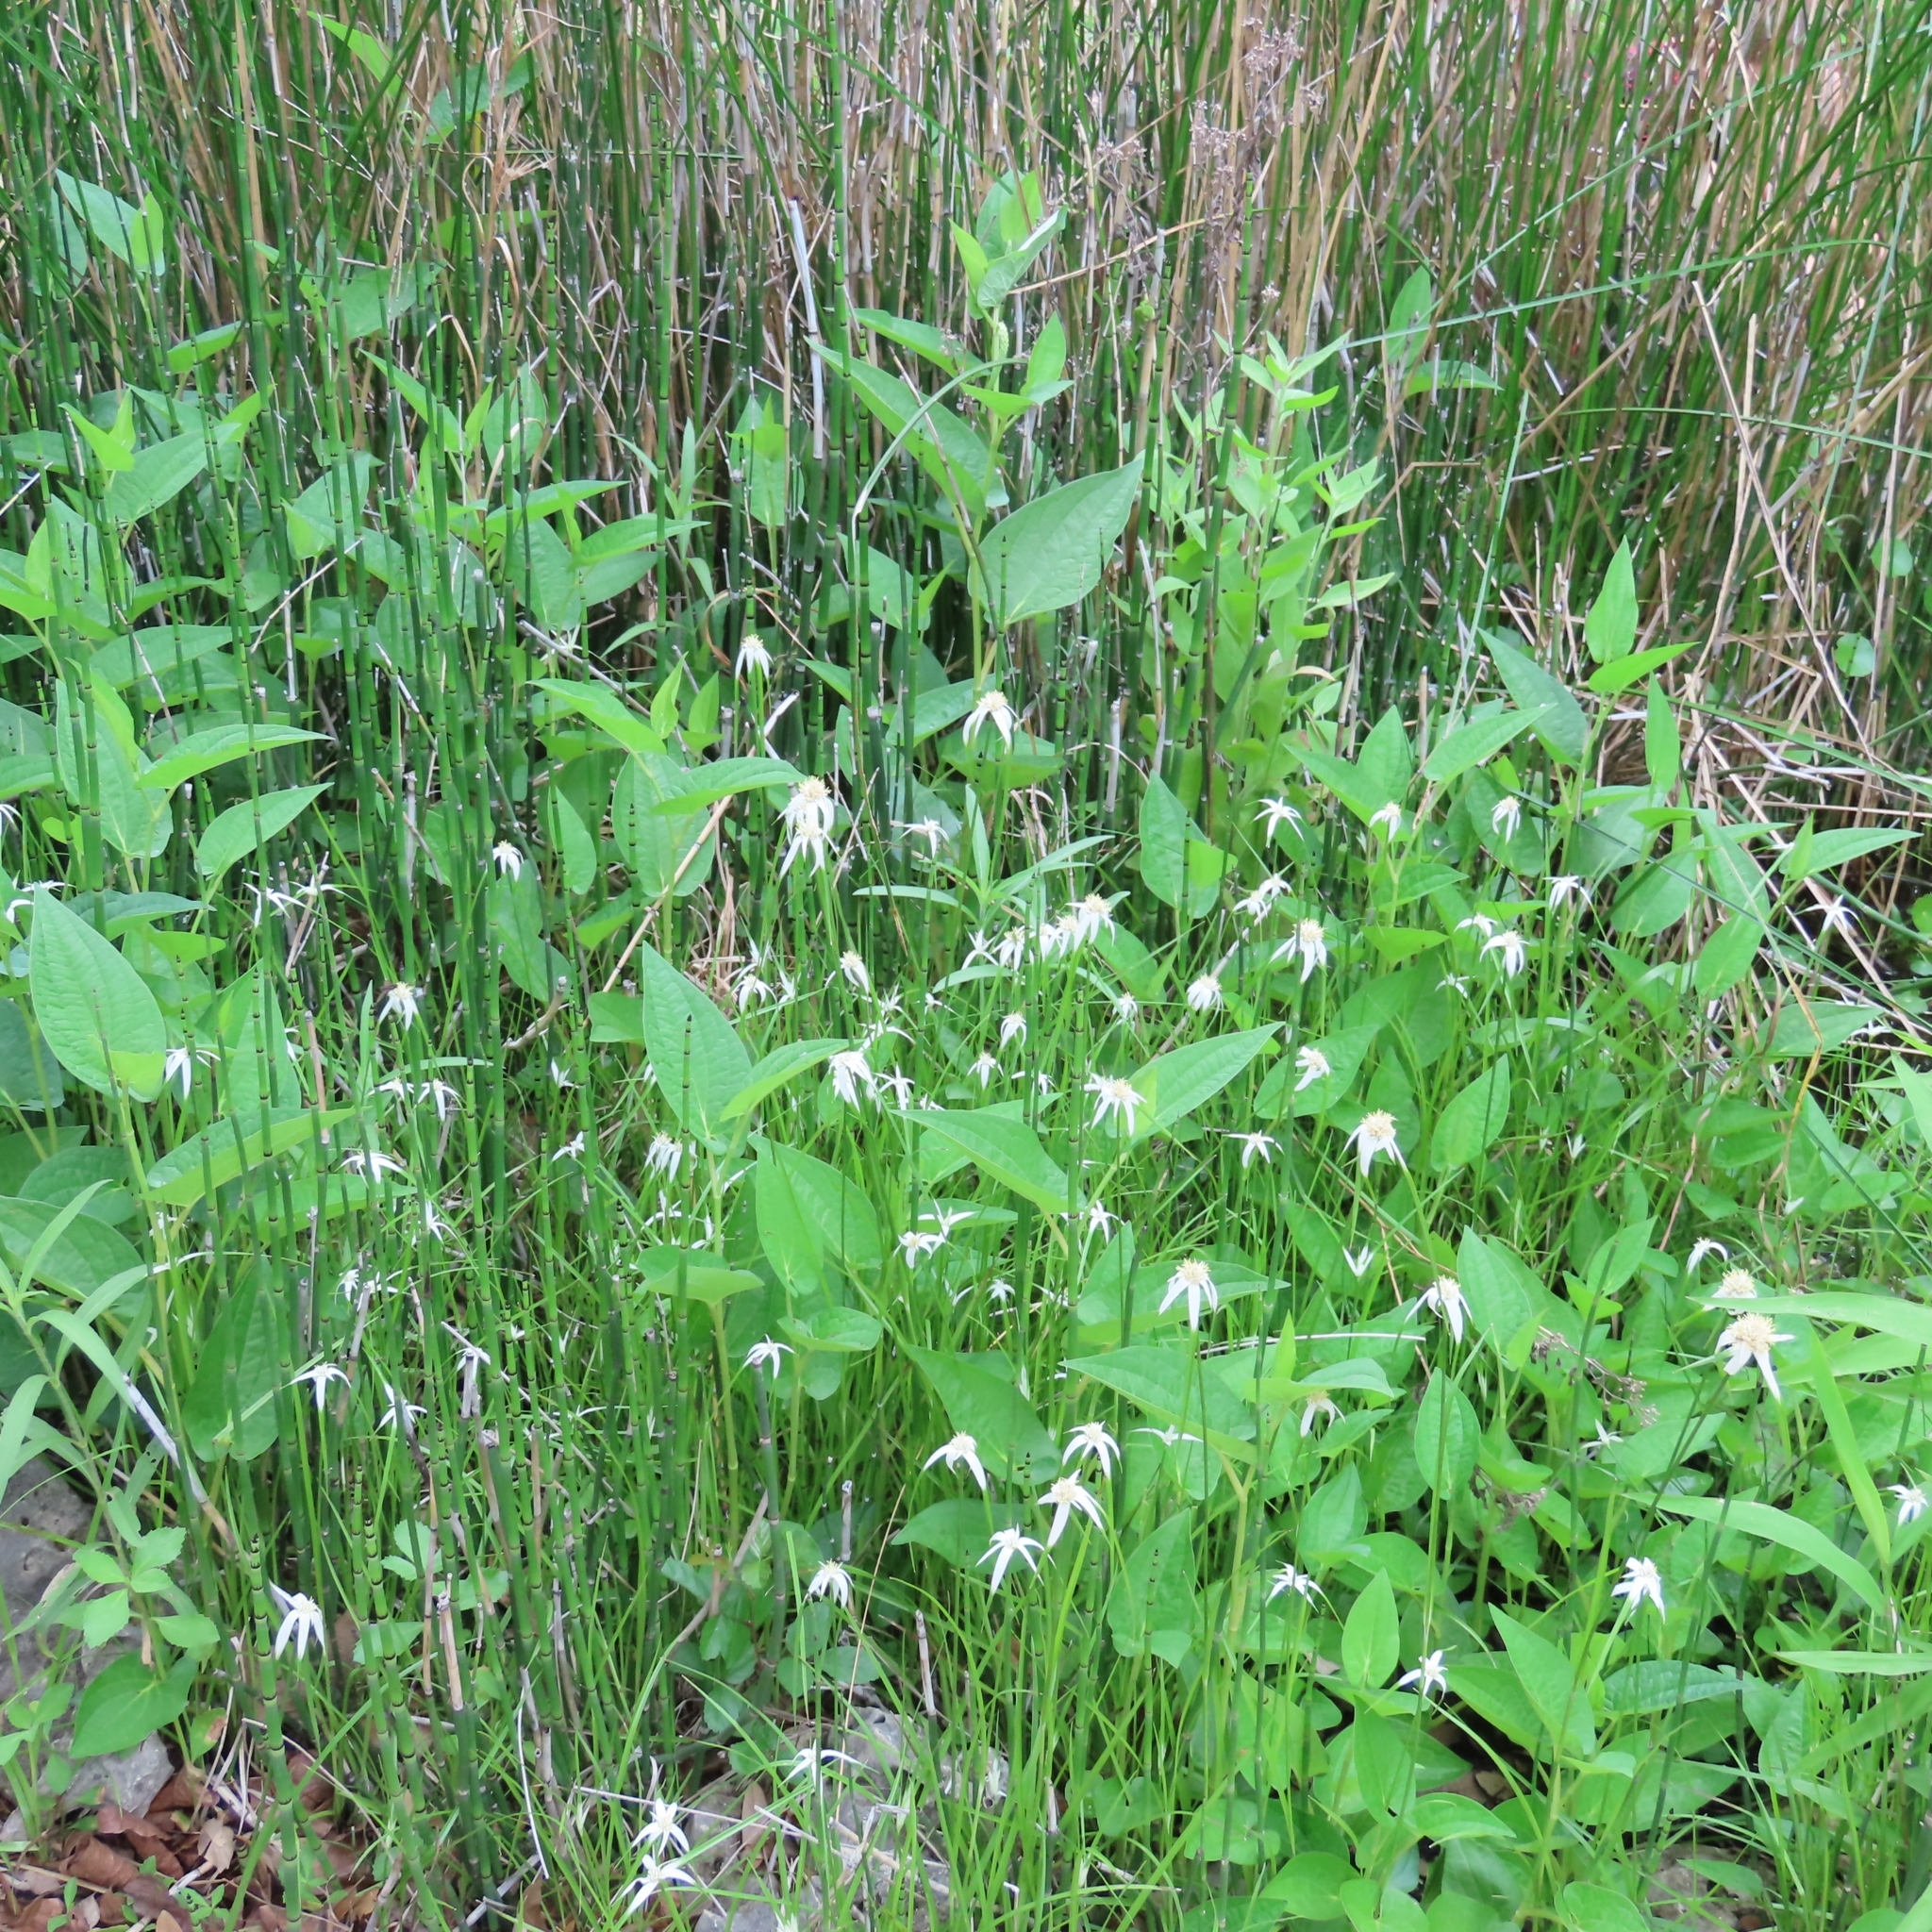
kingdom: Plantae
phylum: Tracheophyta
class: Liliopsida
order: Poales
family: Cyperaceae
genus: Rhynchospora
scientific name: Rhynchospora colorata
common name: Star sedge
